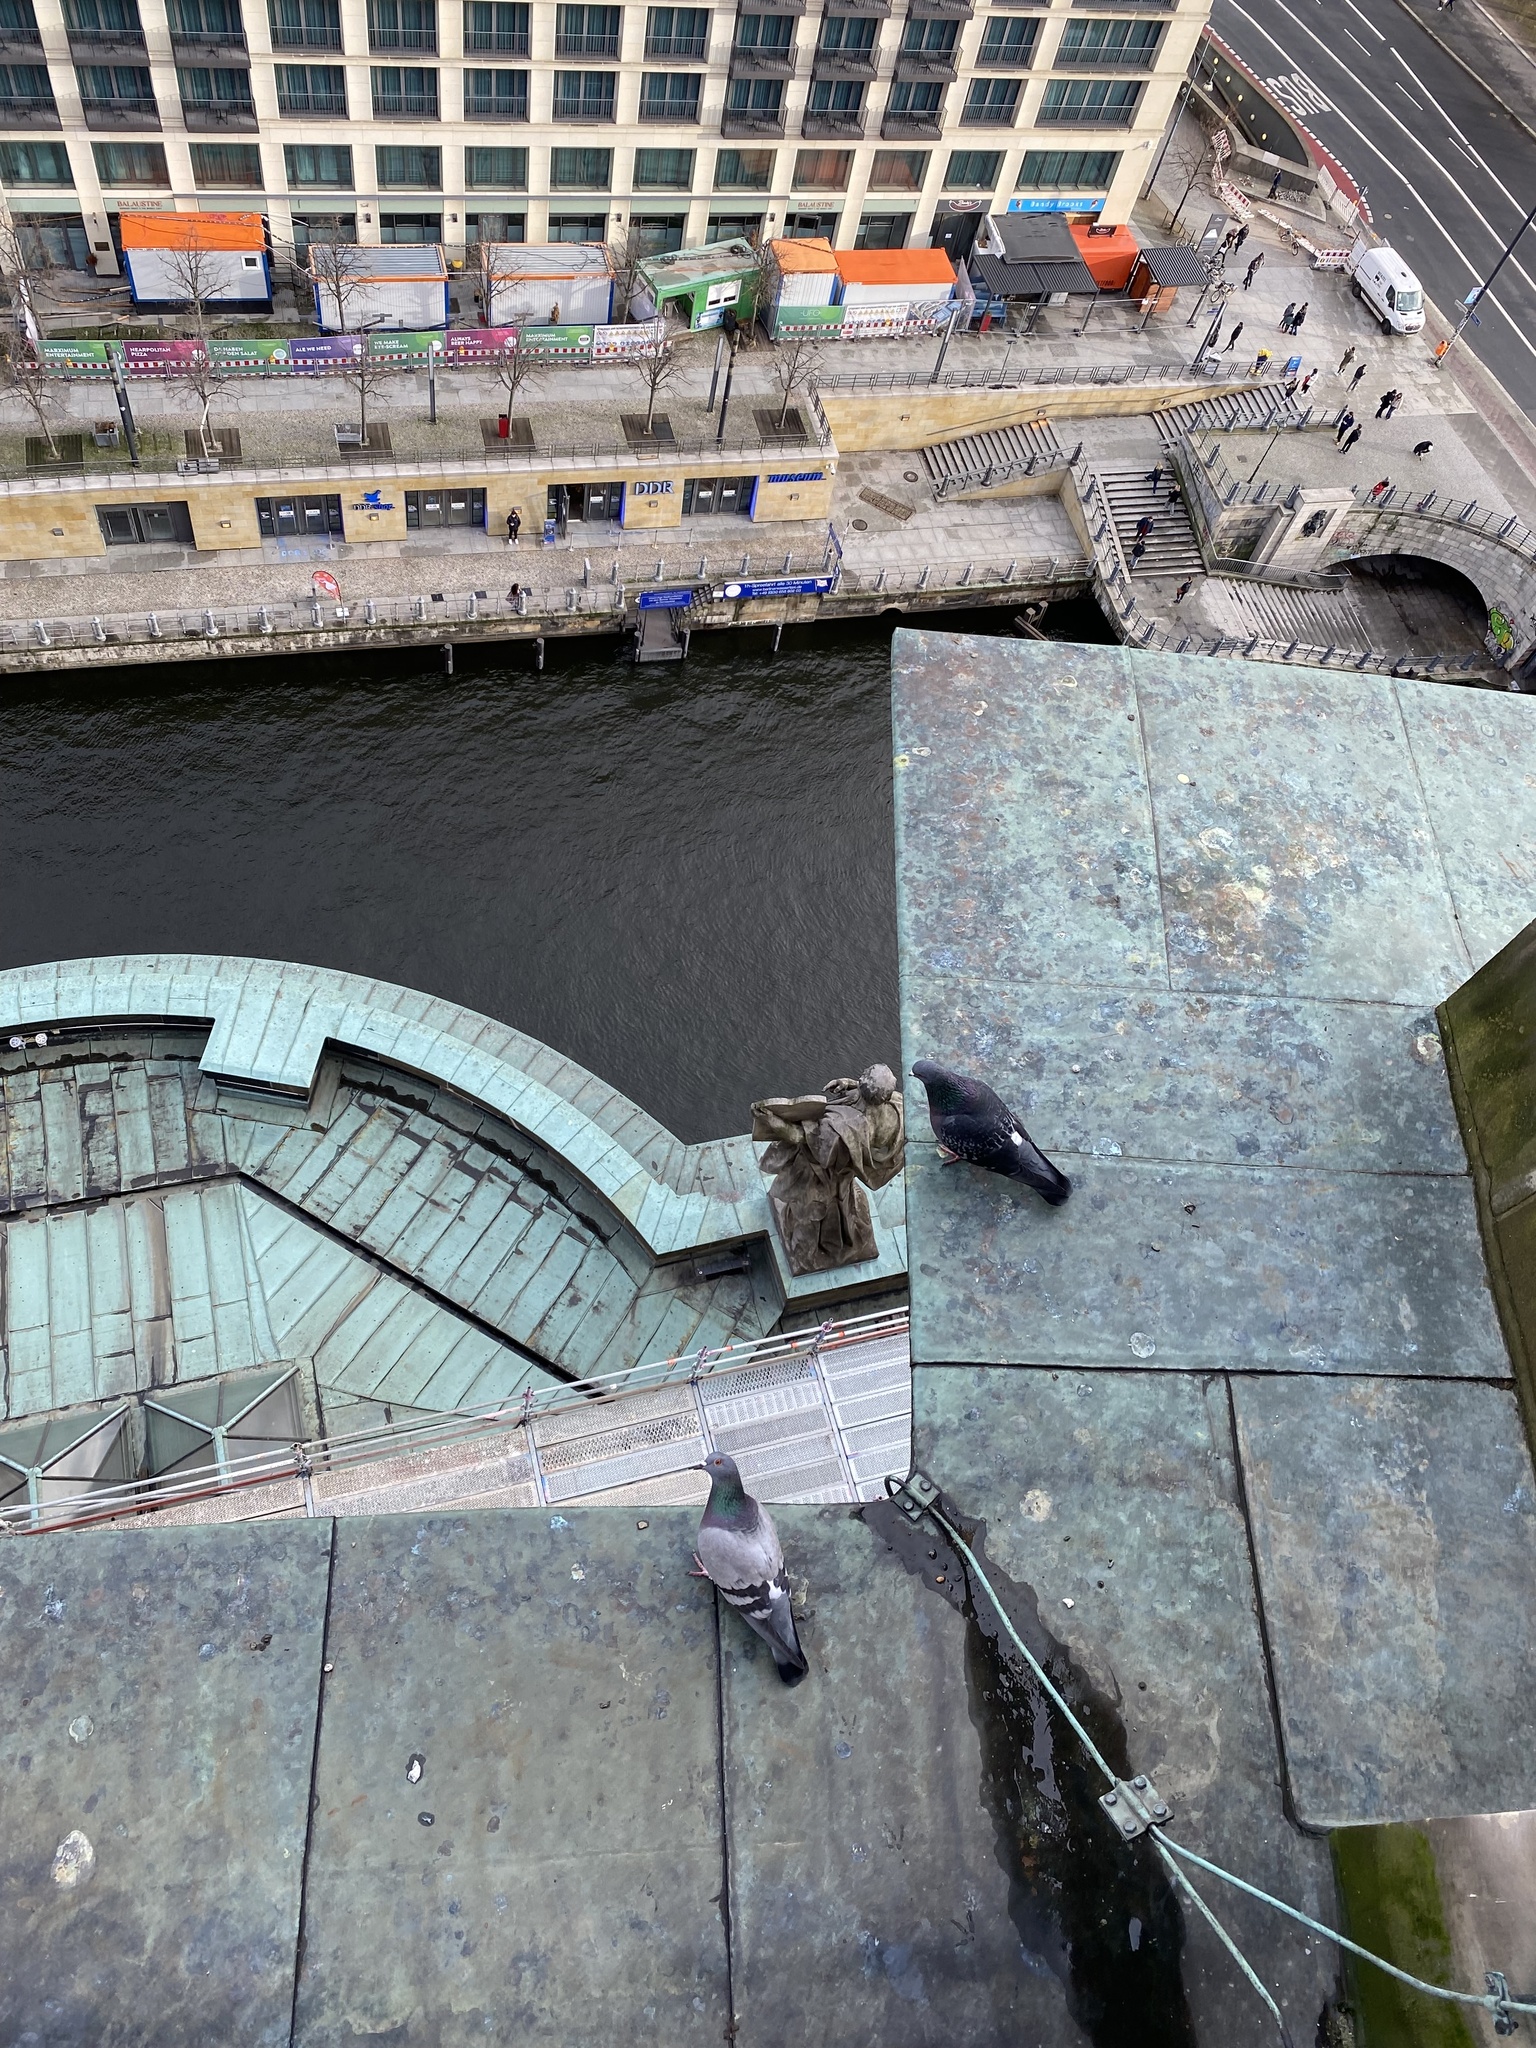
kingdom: Animalia
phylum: Chordata
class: Aves
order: Columbiformes
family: Columbidae
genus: Columba
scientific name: Columba livia
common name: Rock pigeon
